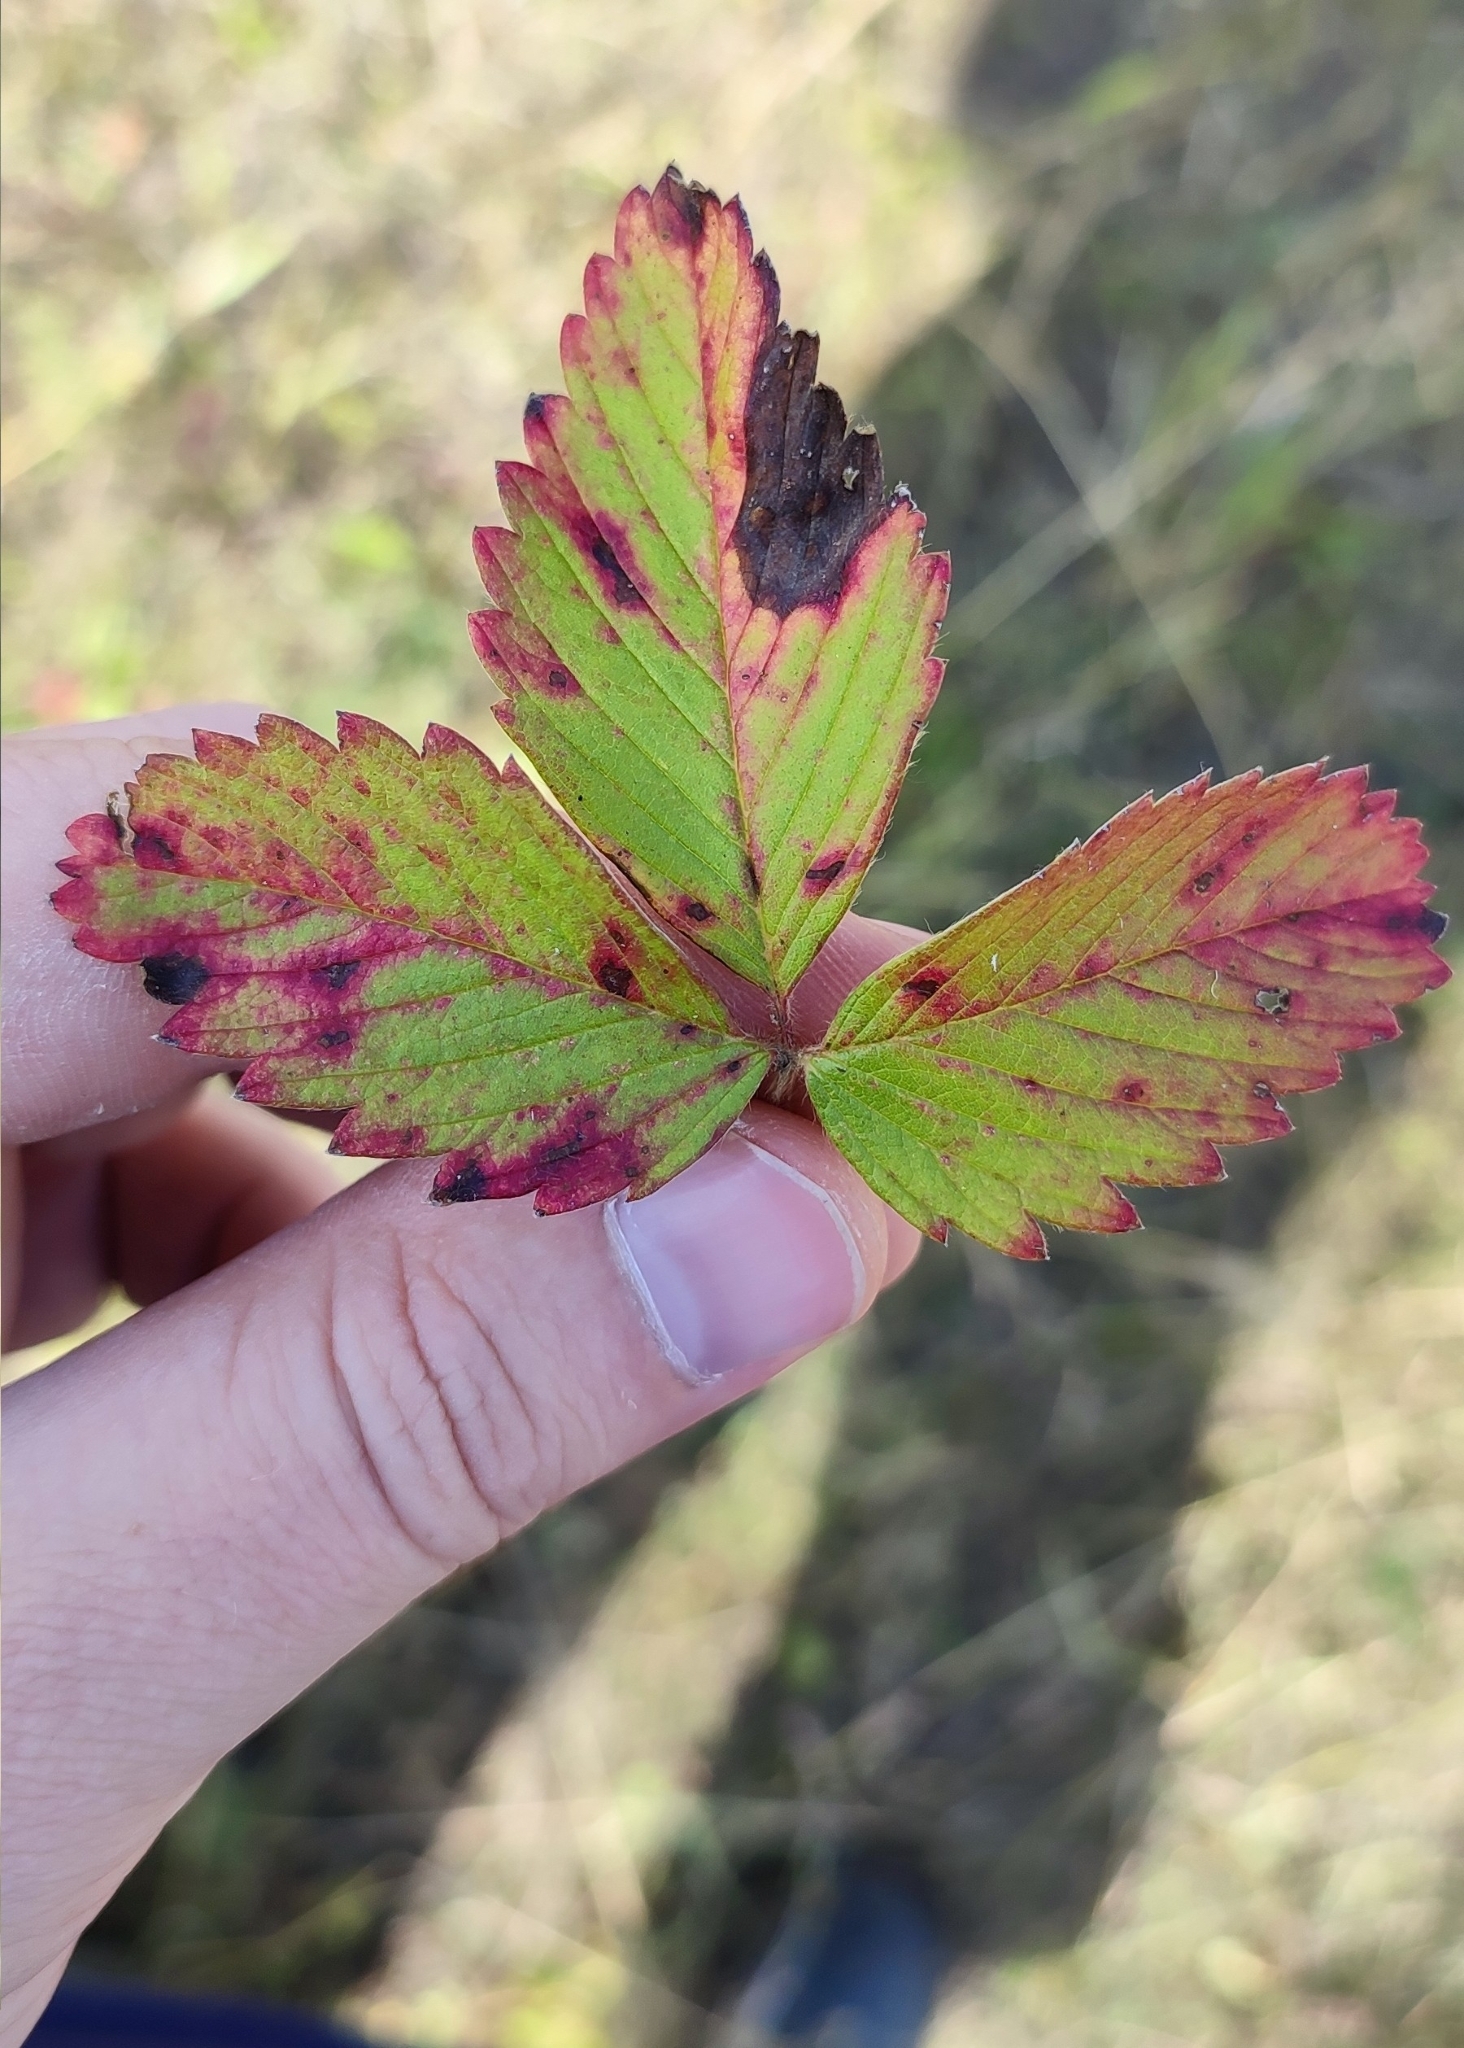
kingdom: Plantae
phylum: Tracheophyta
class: Magnoliopsida
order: Rosales
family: Rosaceae
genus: Fragaria
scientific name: Fragaria viridis
